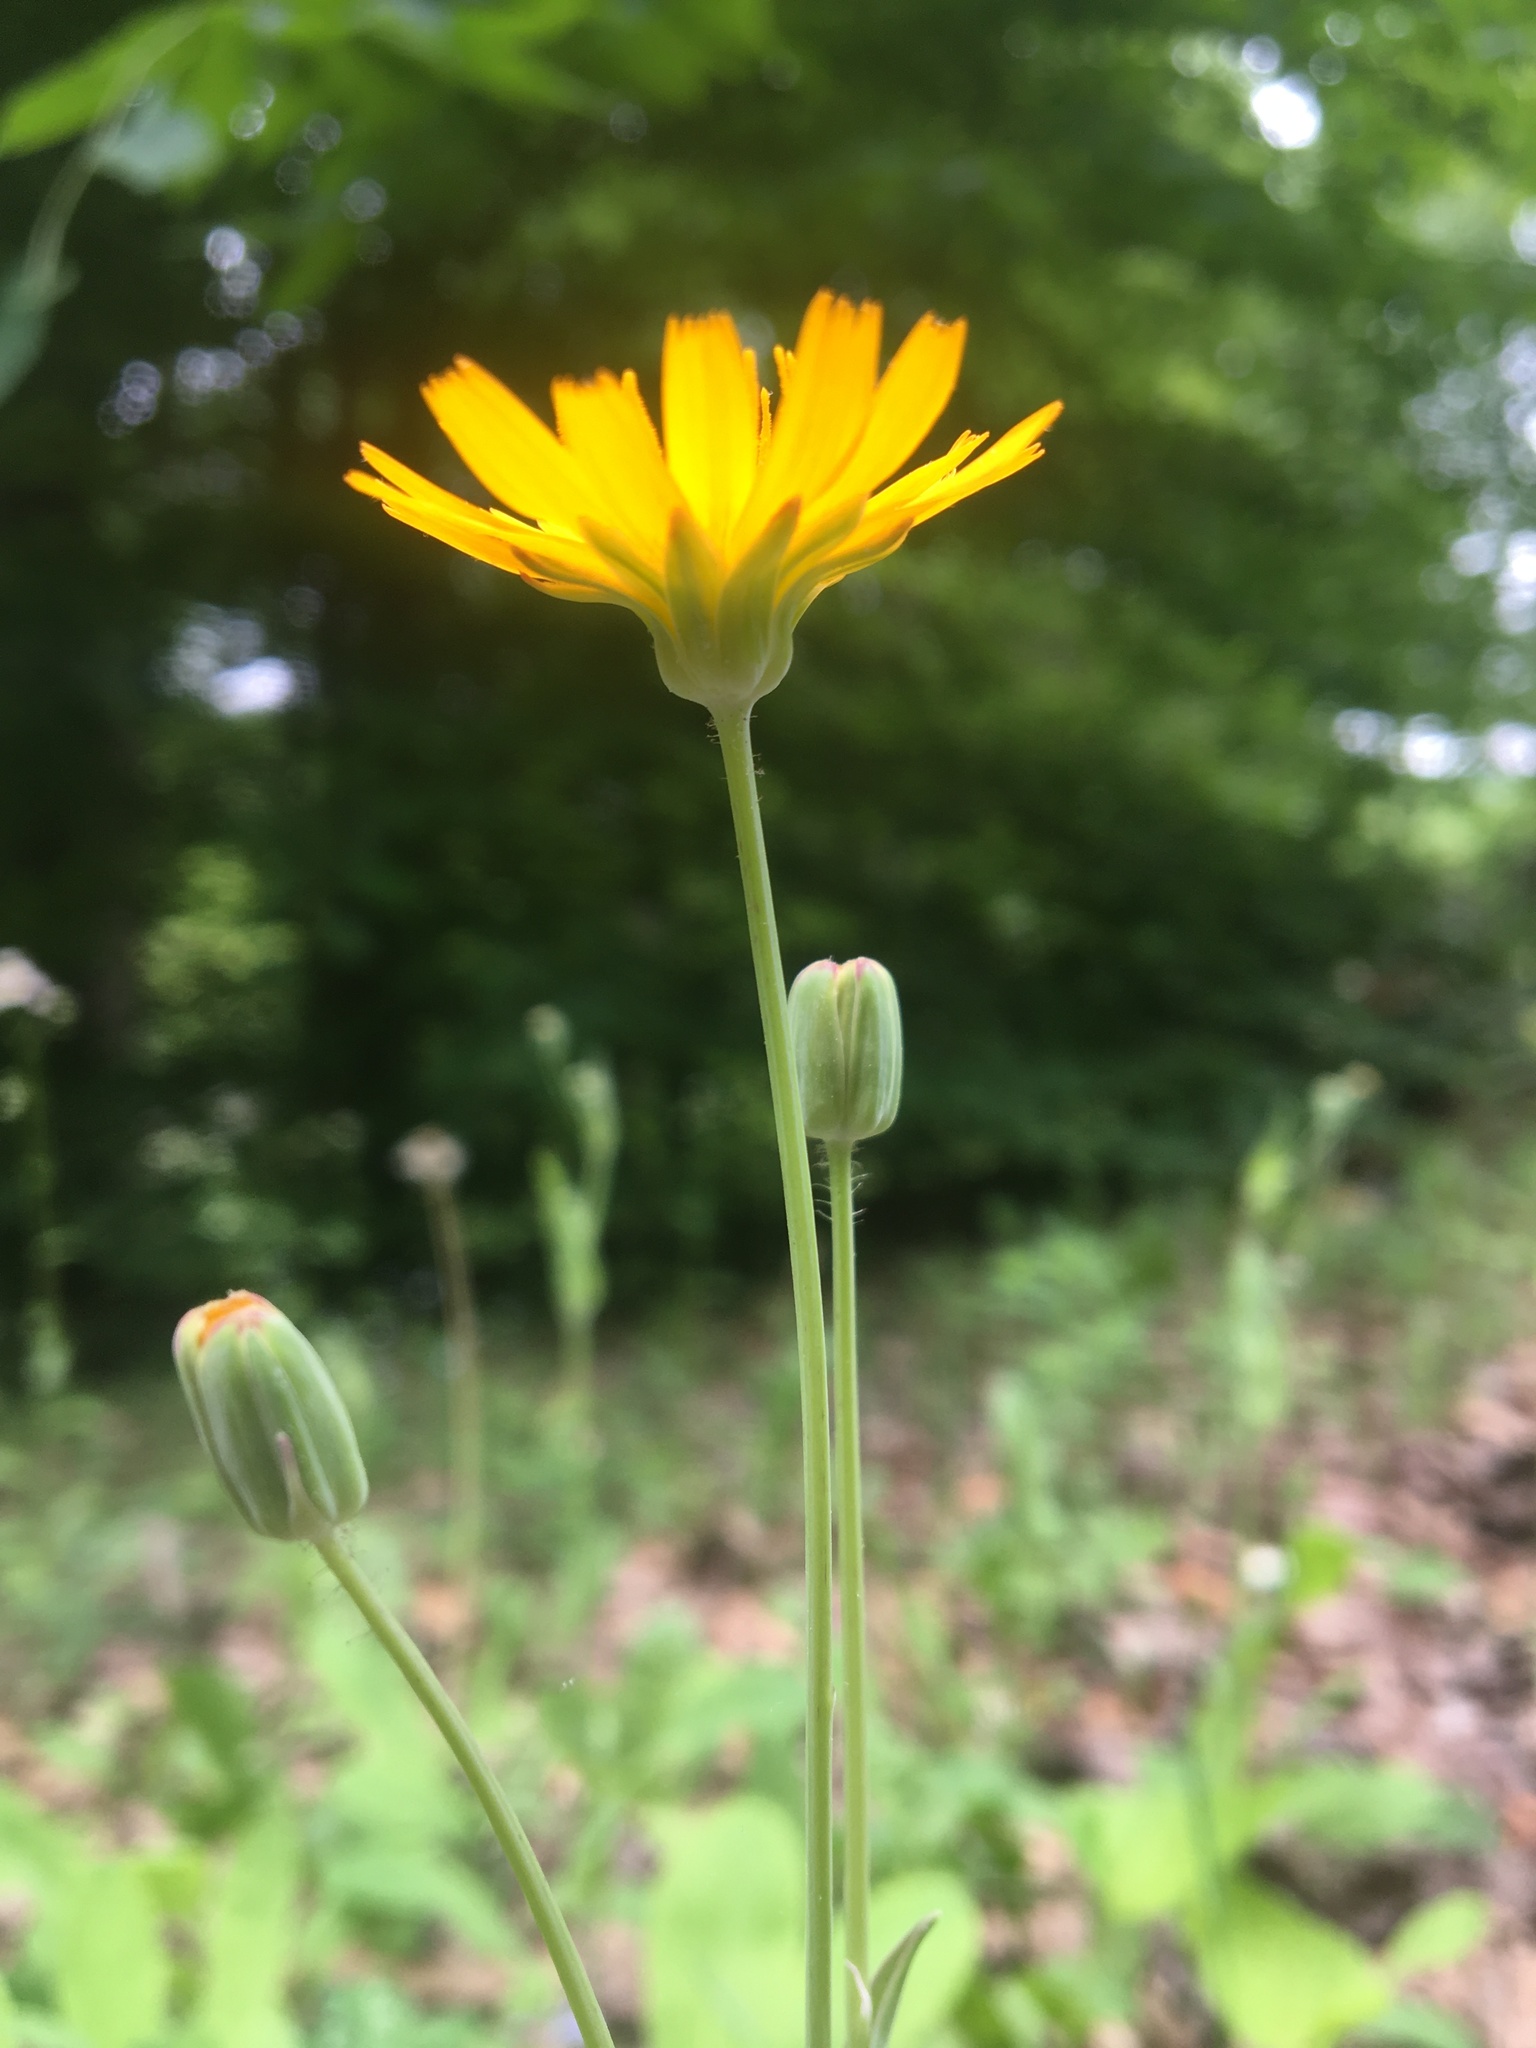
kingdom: Plantae
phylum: Tracheophyta
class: Magnoliopsida
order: Asterales
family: Asteraceae
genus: Krigia
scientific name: Krigia biflora
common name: Orange dwarf-dandelion
